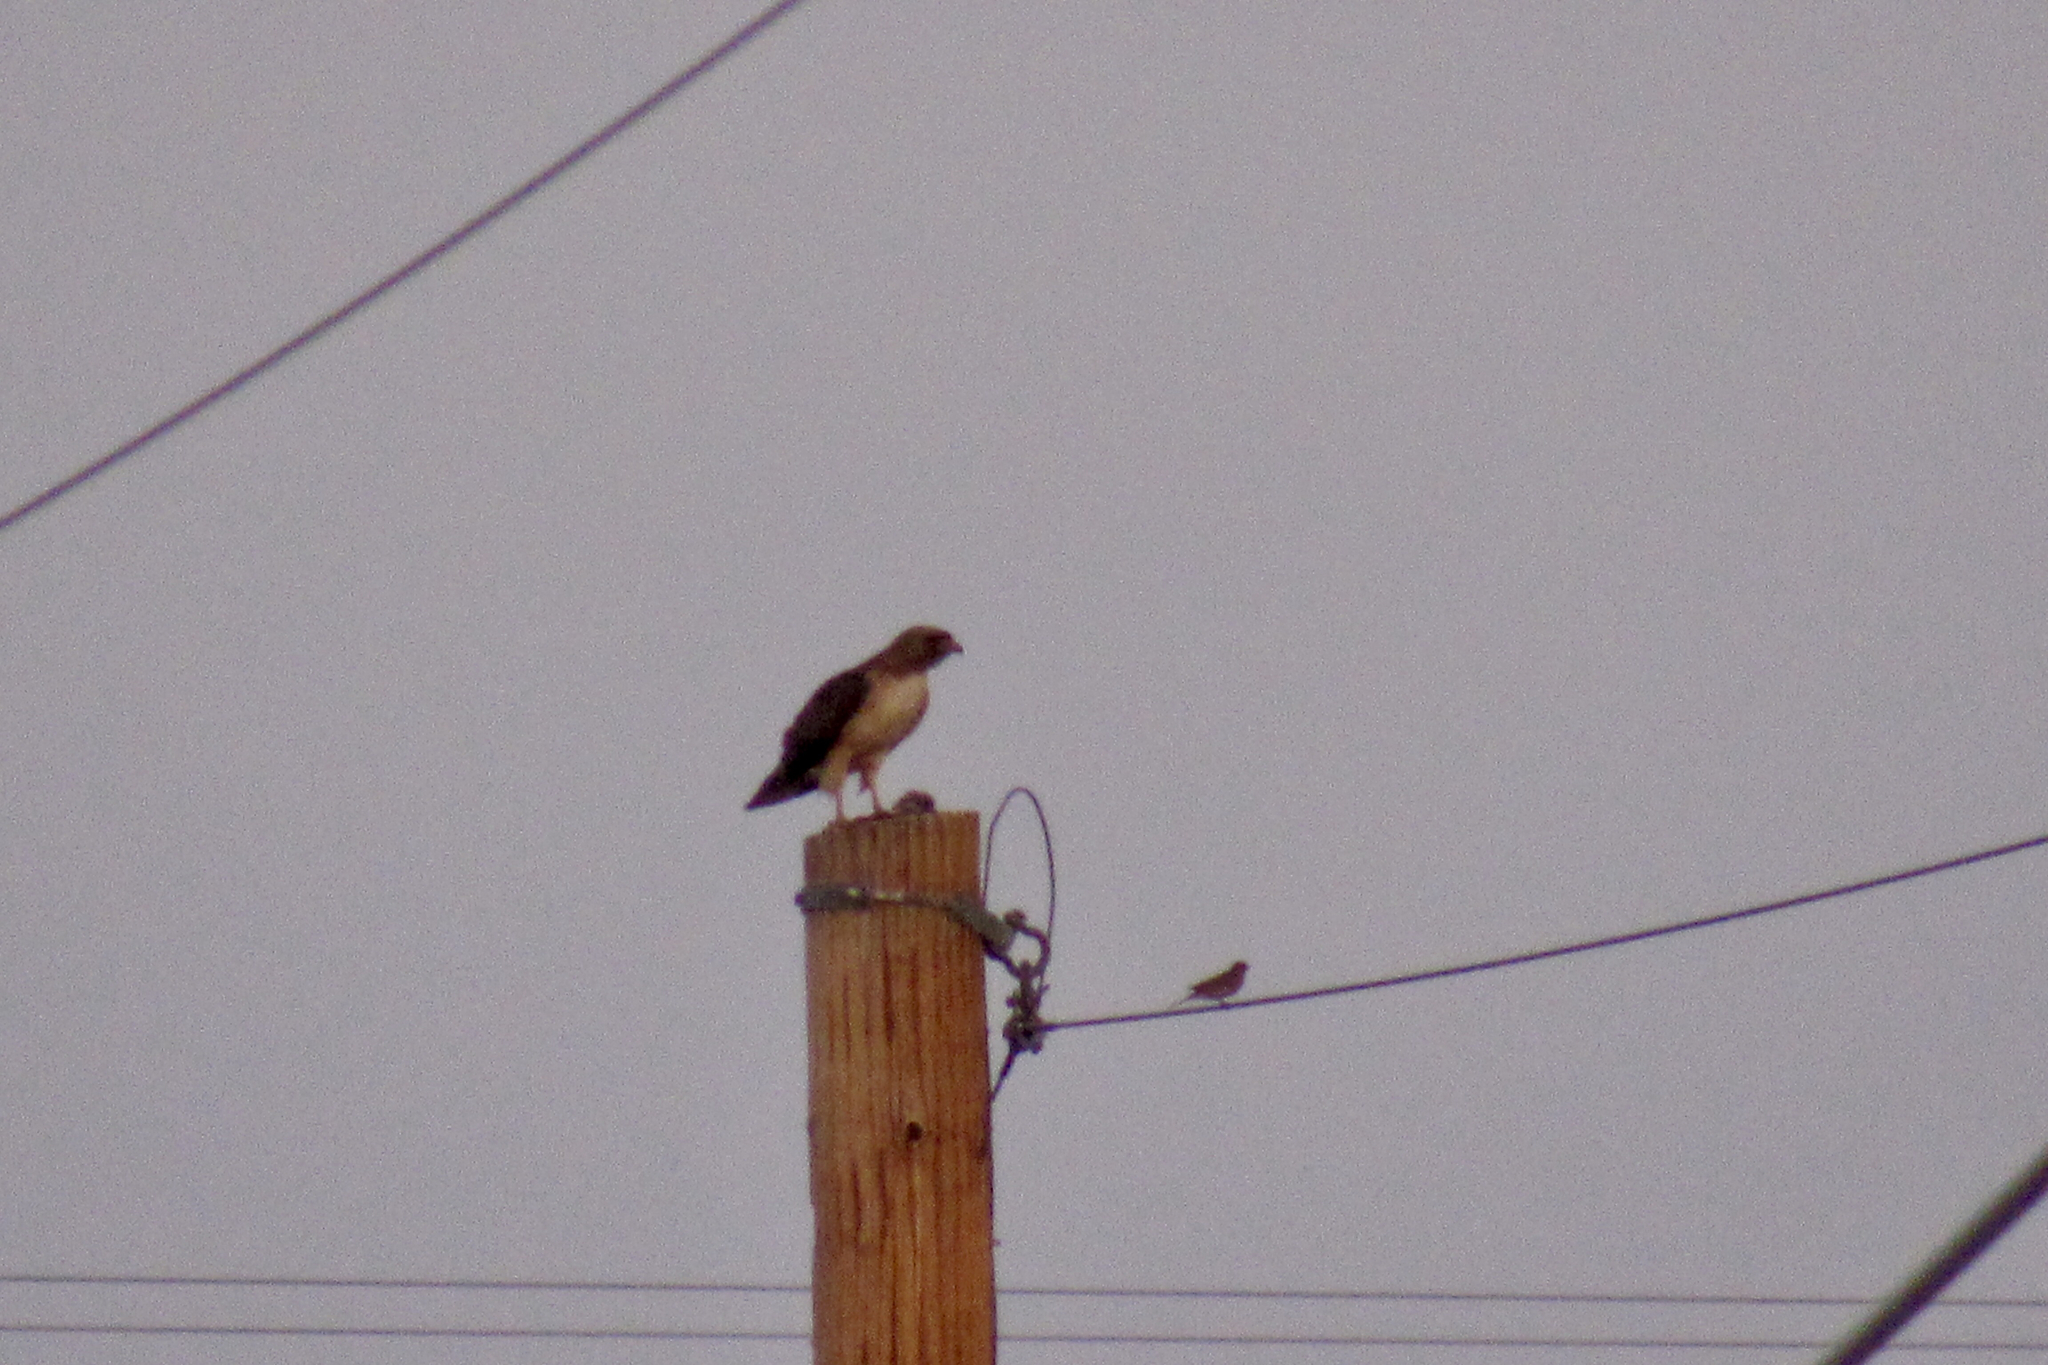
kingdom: Animalia
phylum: Chordata
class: Aves
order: Accipitriformes
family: Accipitridae
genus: Buteo
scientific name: Buteo jamaicensis
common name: Red-tailed hawk
